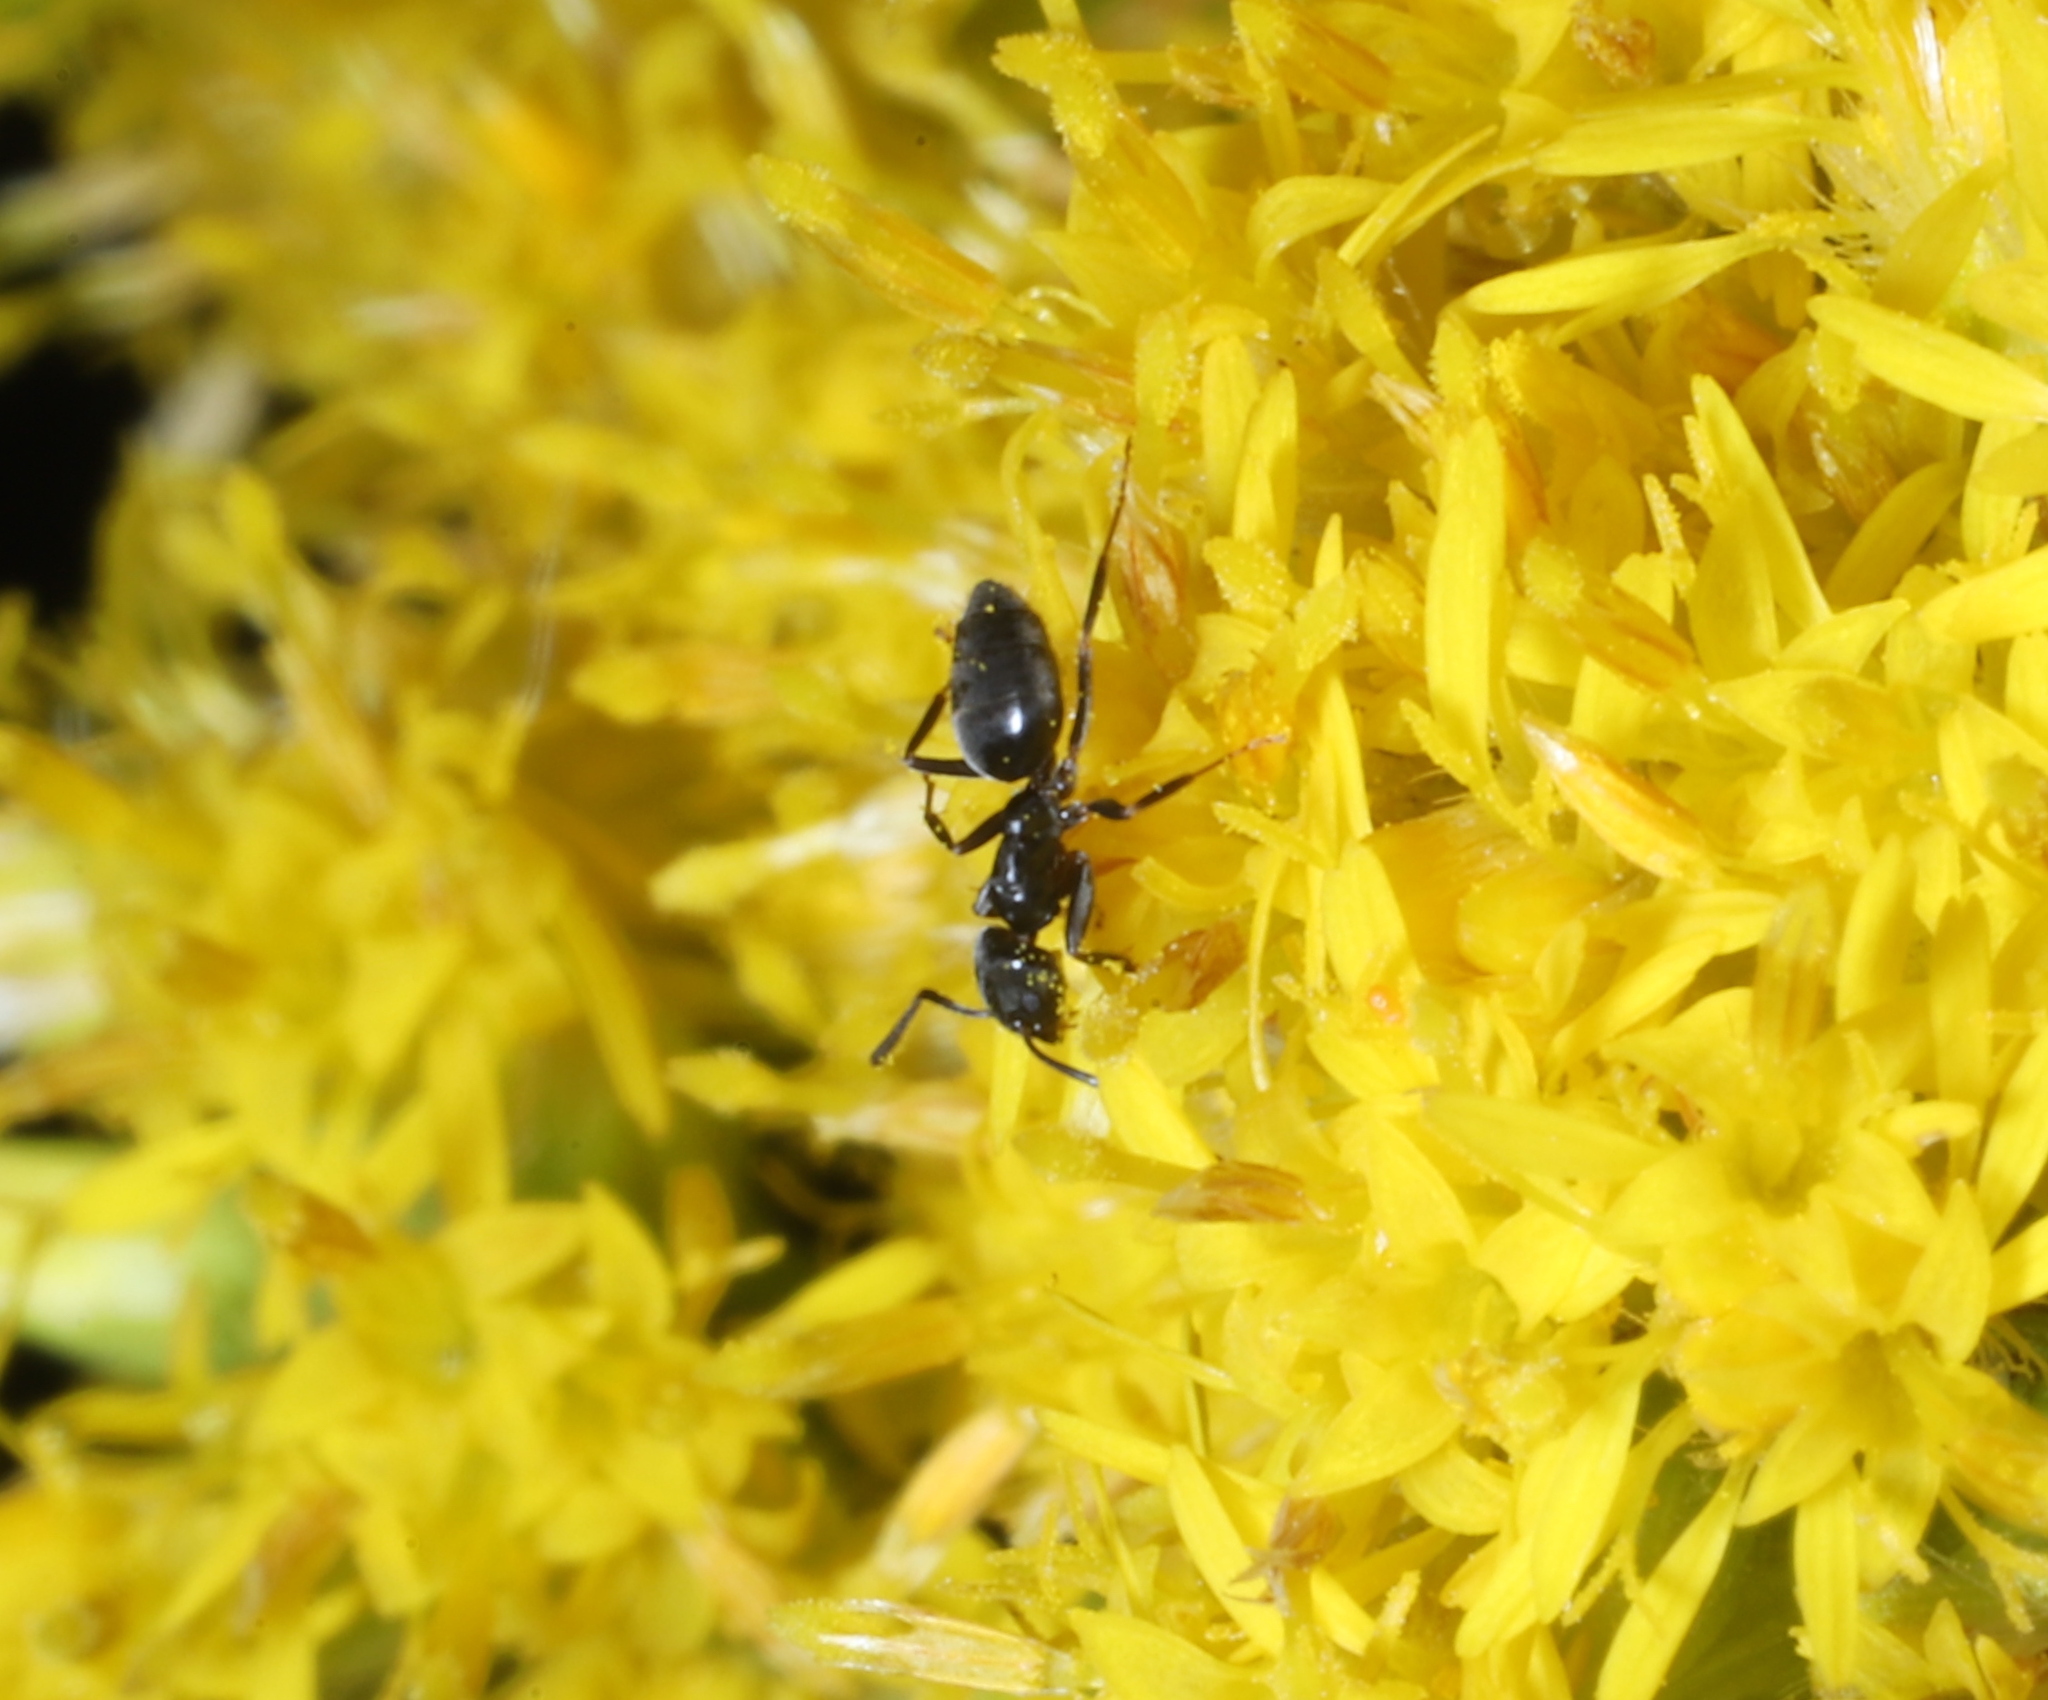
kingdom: Animalia
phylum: Arthropoda
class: Insecta
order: Hymenoptera
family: Formicidae
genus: Tapinoma
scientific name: Tapinoma sessile
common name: Odorous house ant
